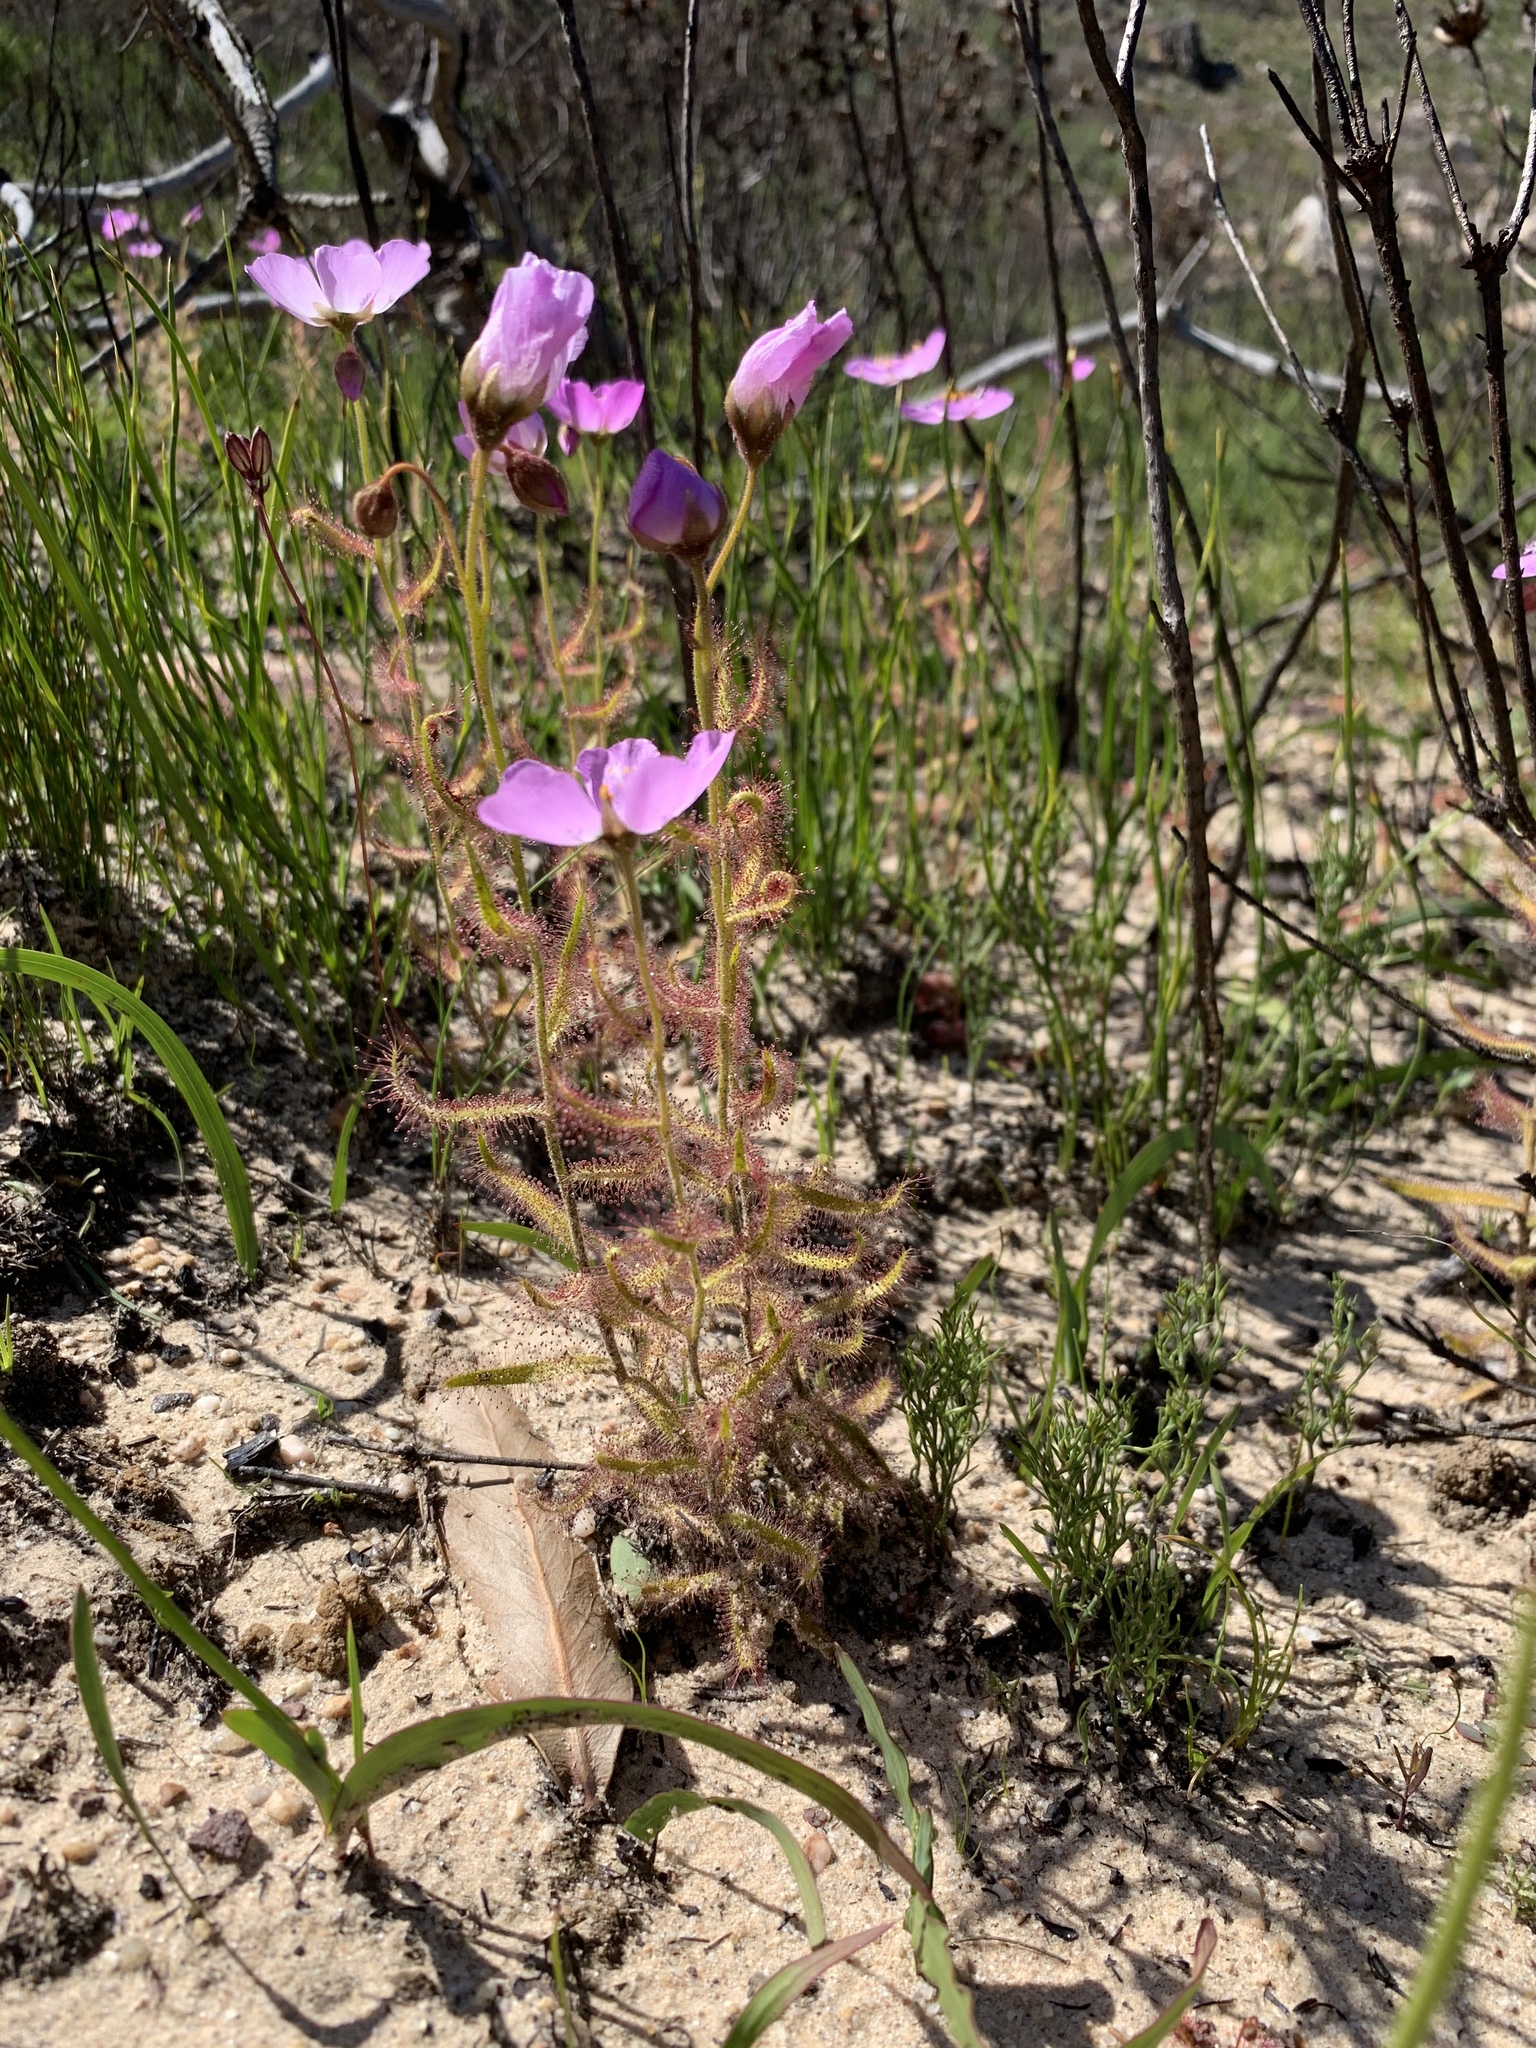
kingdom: Plantae
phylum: Tracheophyta
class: Magnoliopsida
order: Caryophyllales
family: Droseraceae
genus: Drosera
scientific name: Drosera cistiflora
